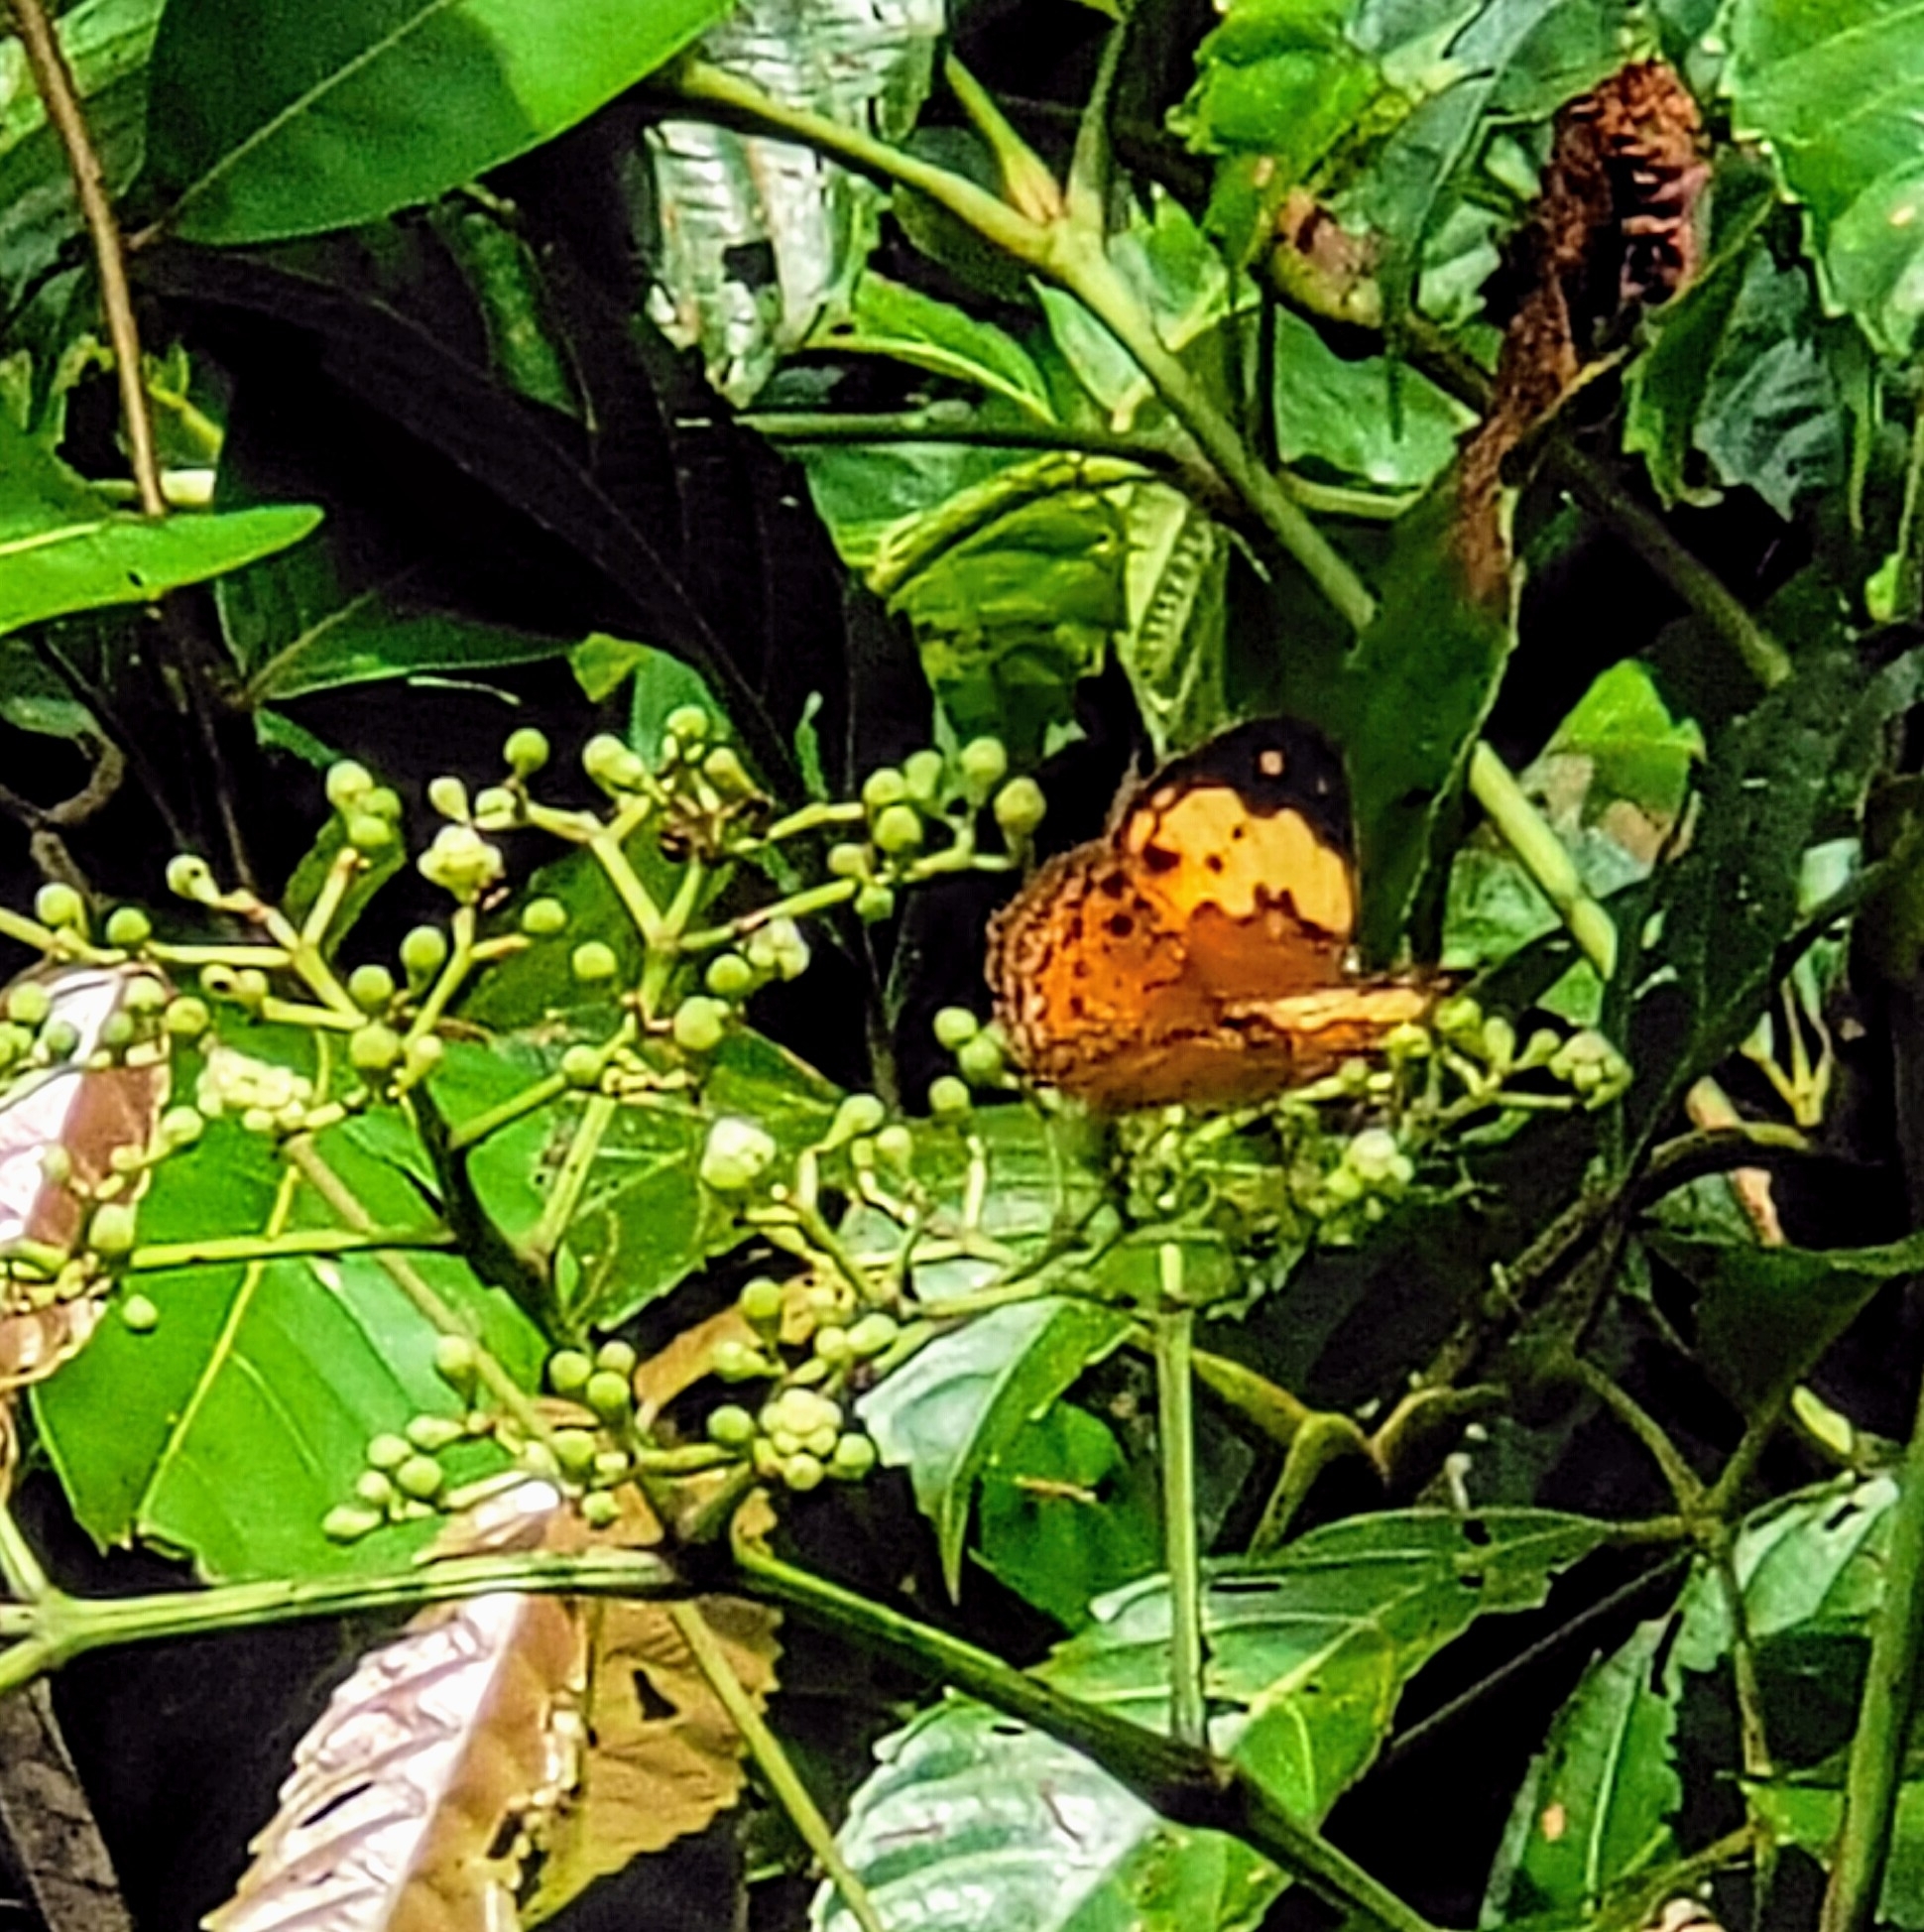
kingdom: Animalia
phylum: Arthropoda
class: Insecta
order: Lepidoptera
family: Nymphalidae
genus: Cupha
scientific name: Cupha erymanthis
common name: Rustic
